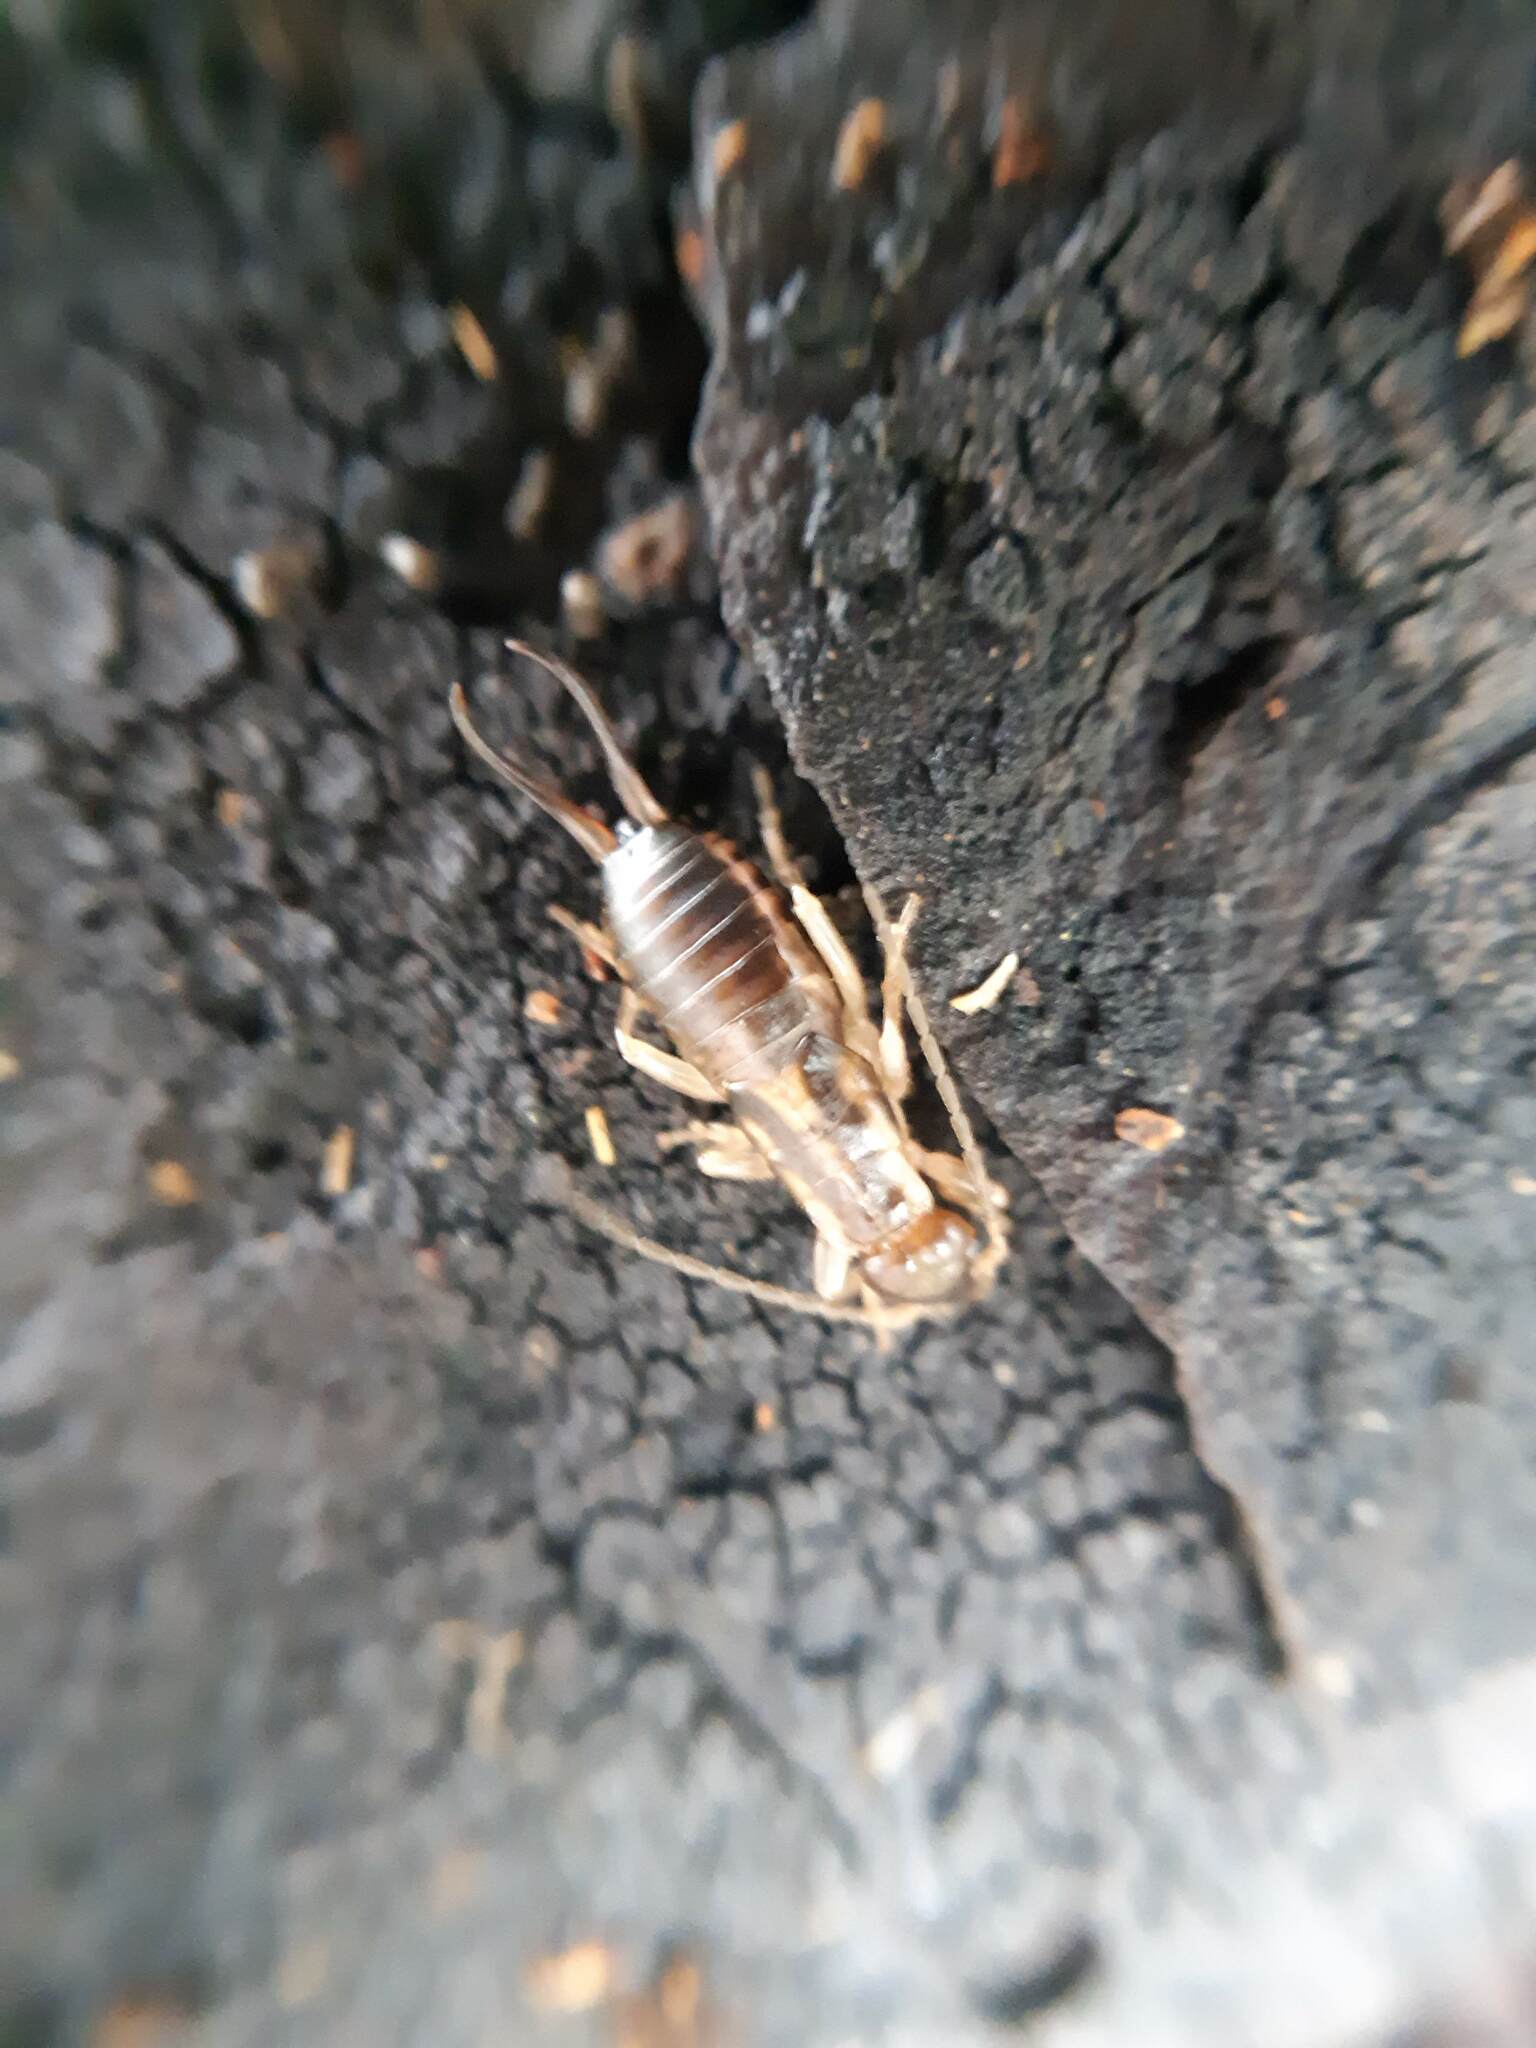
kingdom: Animalia
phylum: Arthropoda
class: Insecta
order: Dermaptera
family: Forficulidae
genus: Forficula
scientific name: Forficula dentata
